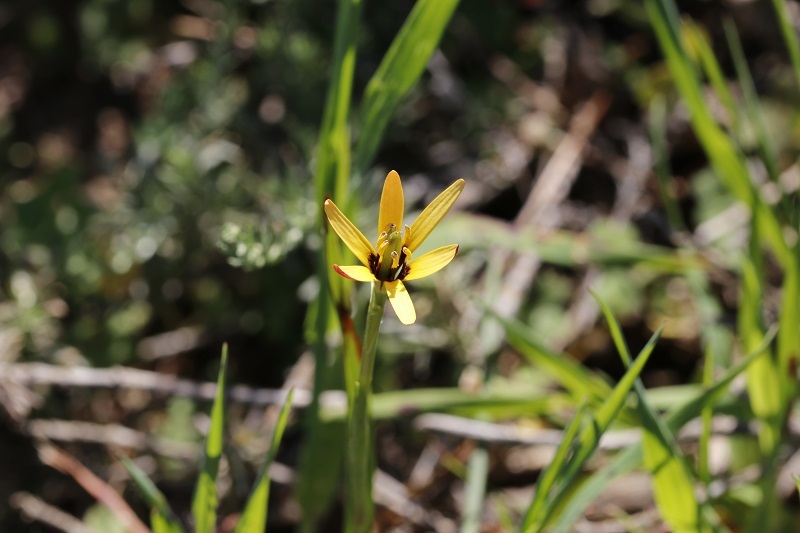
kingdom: Plantae
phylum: Tracheophyta
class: Liliopsida
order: Liliales
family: Colchicaceae
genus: Baeometra
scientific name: Baeometra uniflora
